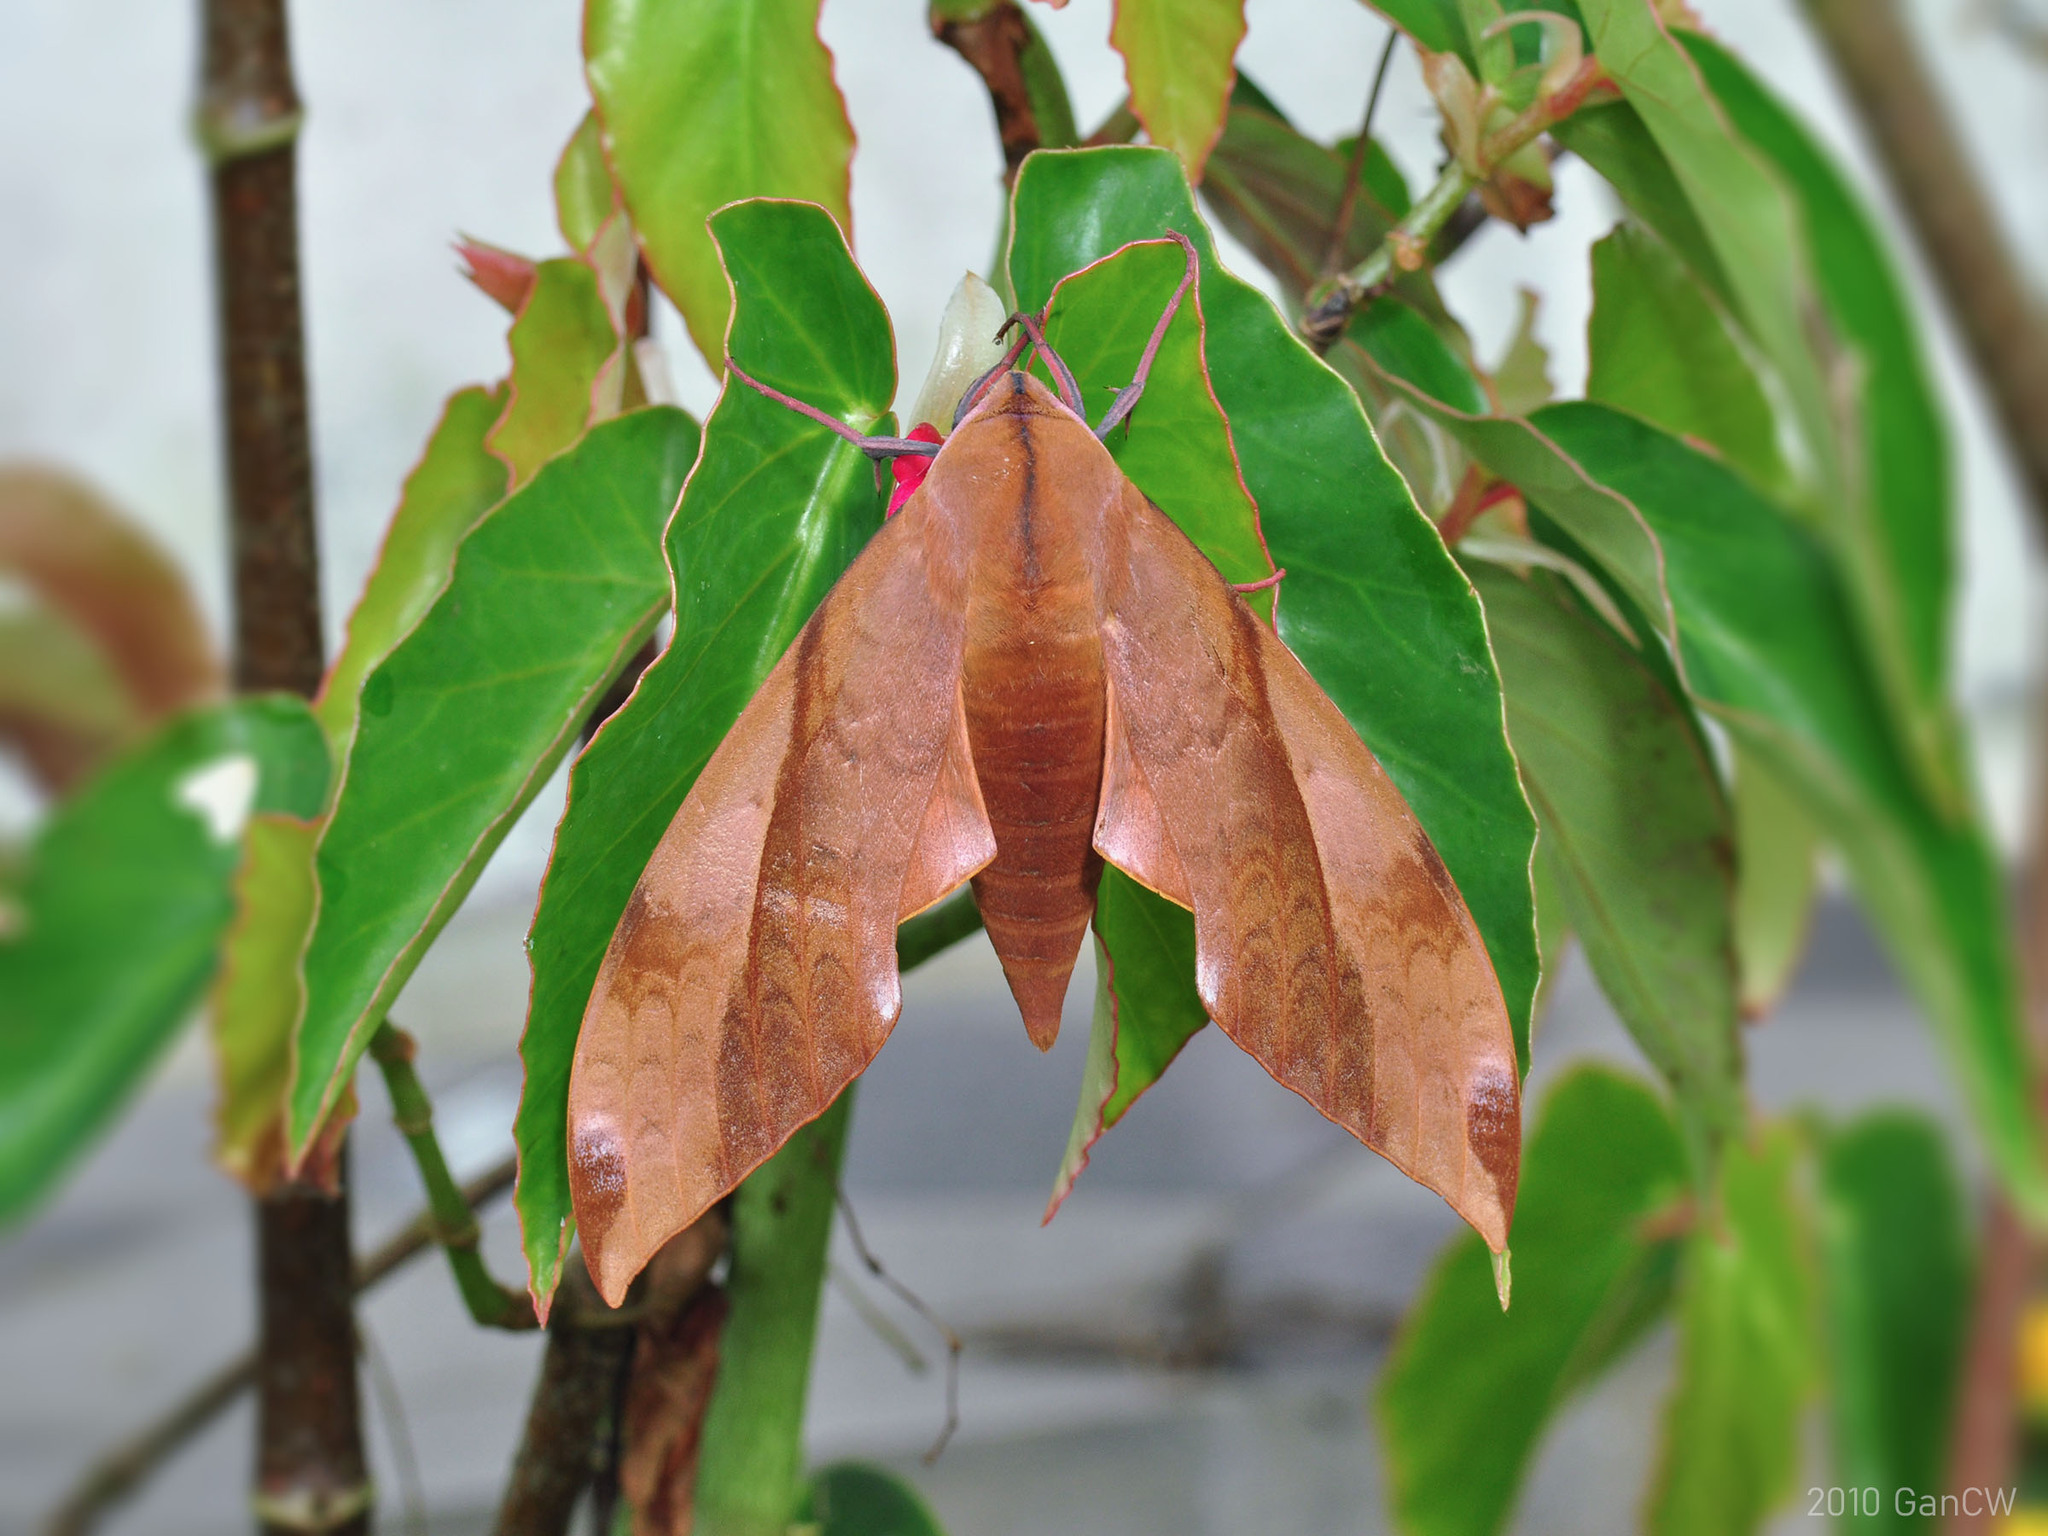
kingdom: Animalia
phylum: Arthropoda
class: Insecta
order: Lepidoptera
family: Sphingidae
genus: Clanis
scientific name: Clanis undulosa
